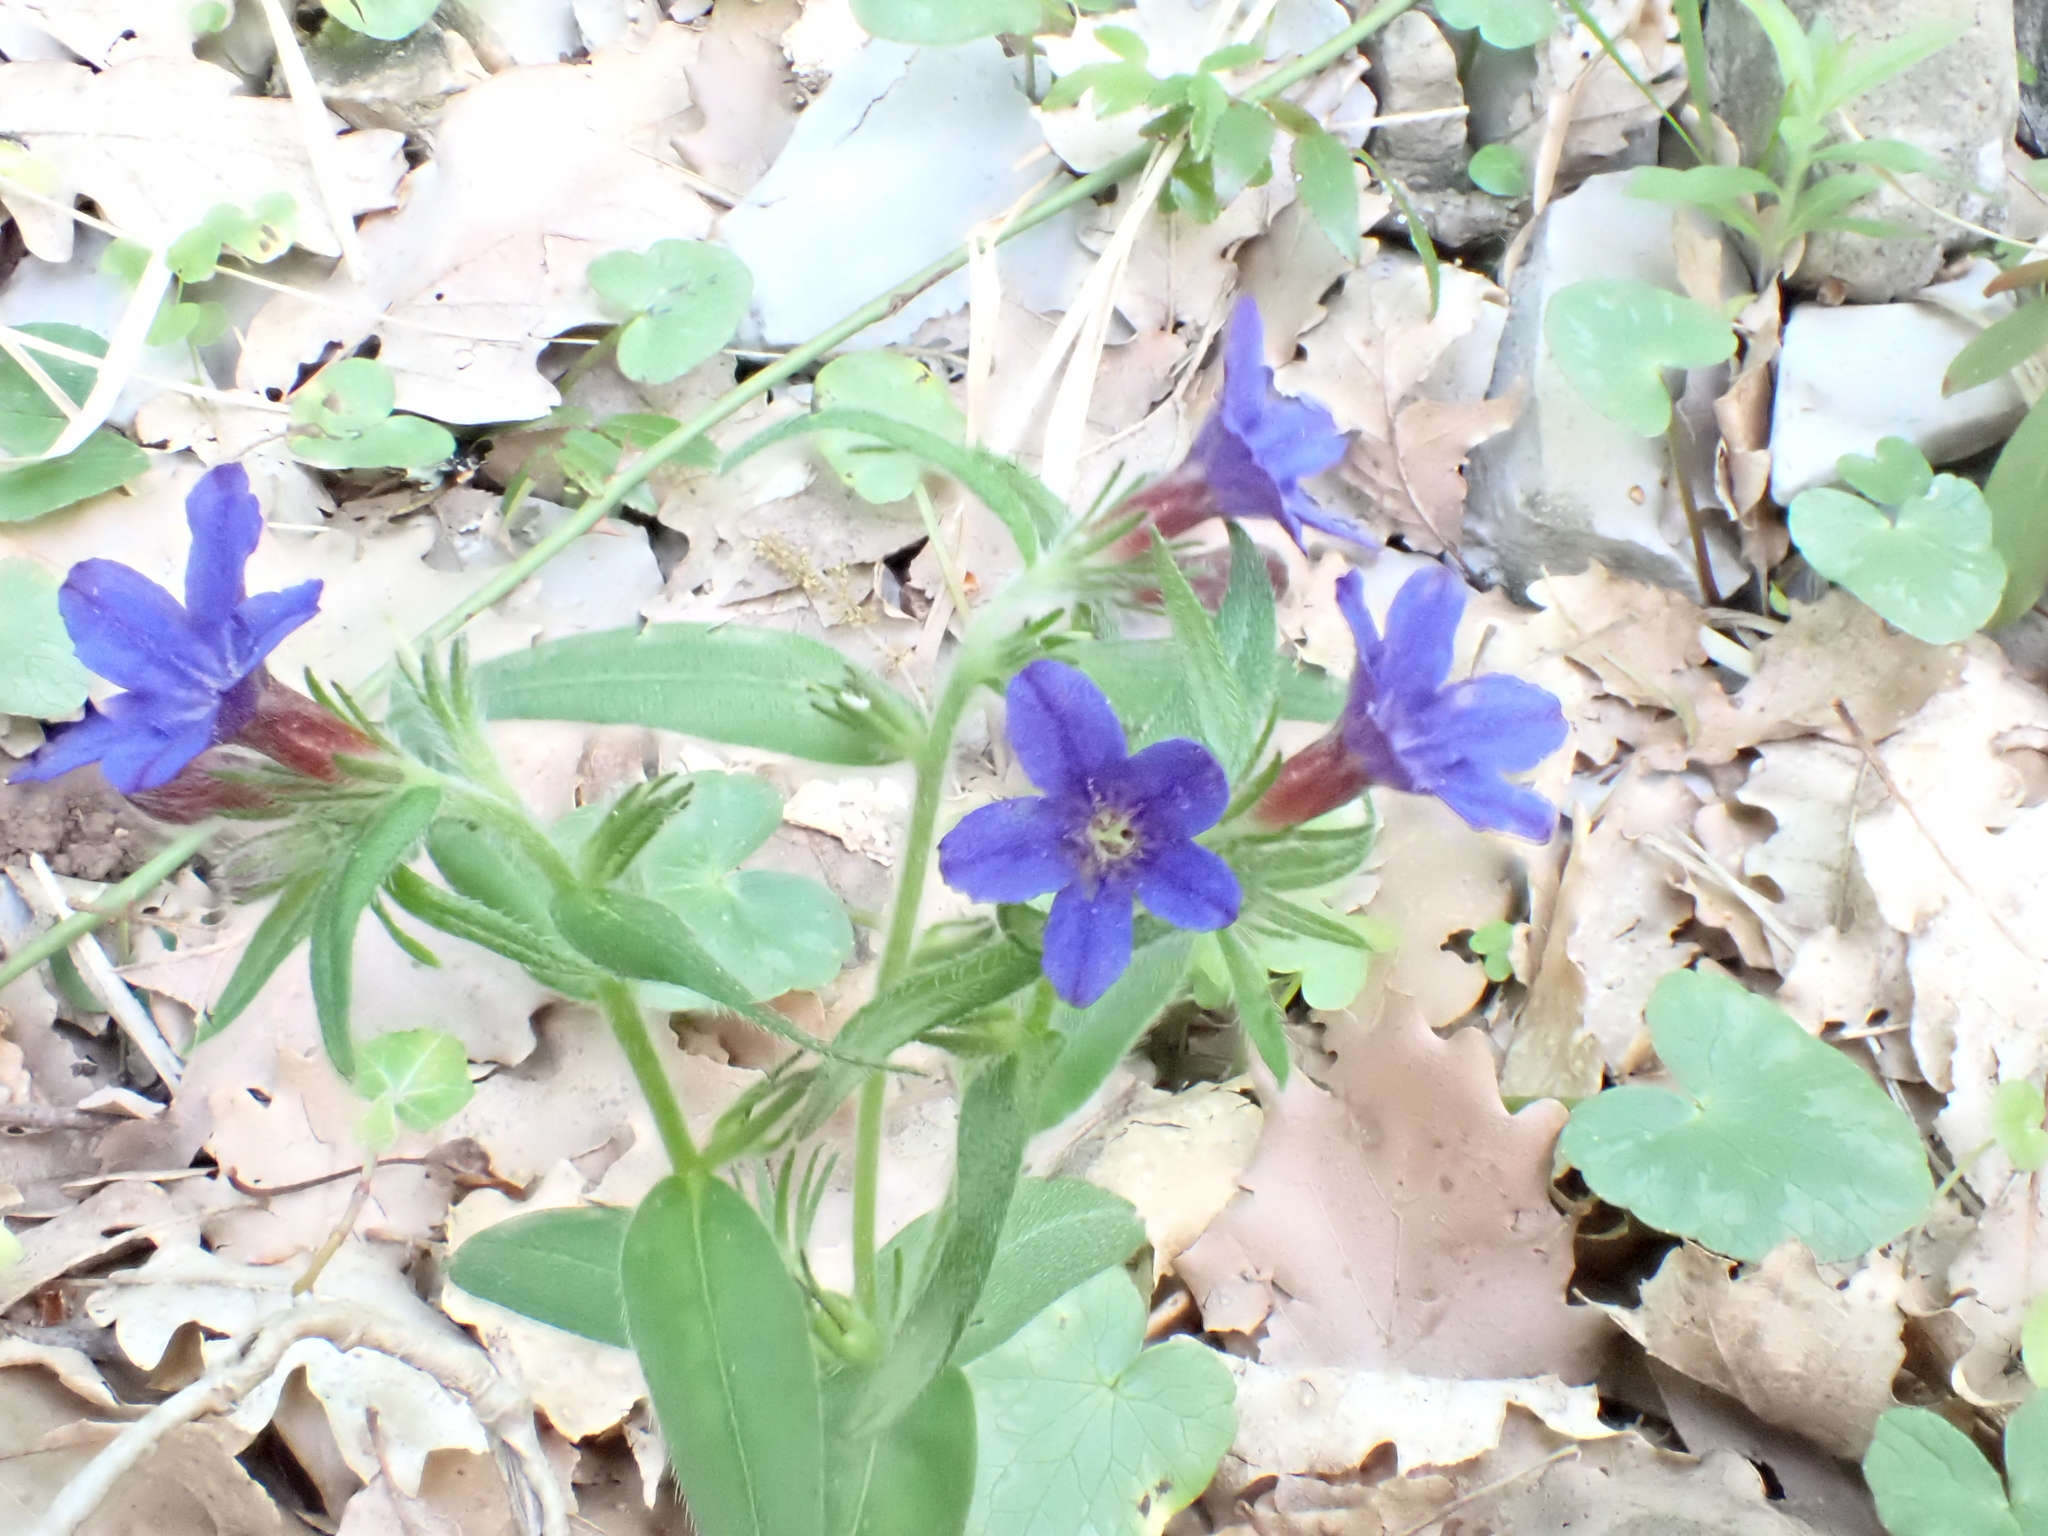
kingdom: Plantae
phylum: Tracheophyta
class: Magnoliopsida
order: Boraginales
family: Boraginaceae
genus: Aegonychon
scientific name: Aegonychon purpurocaeruleum
